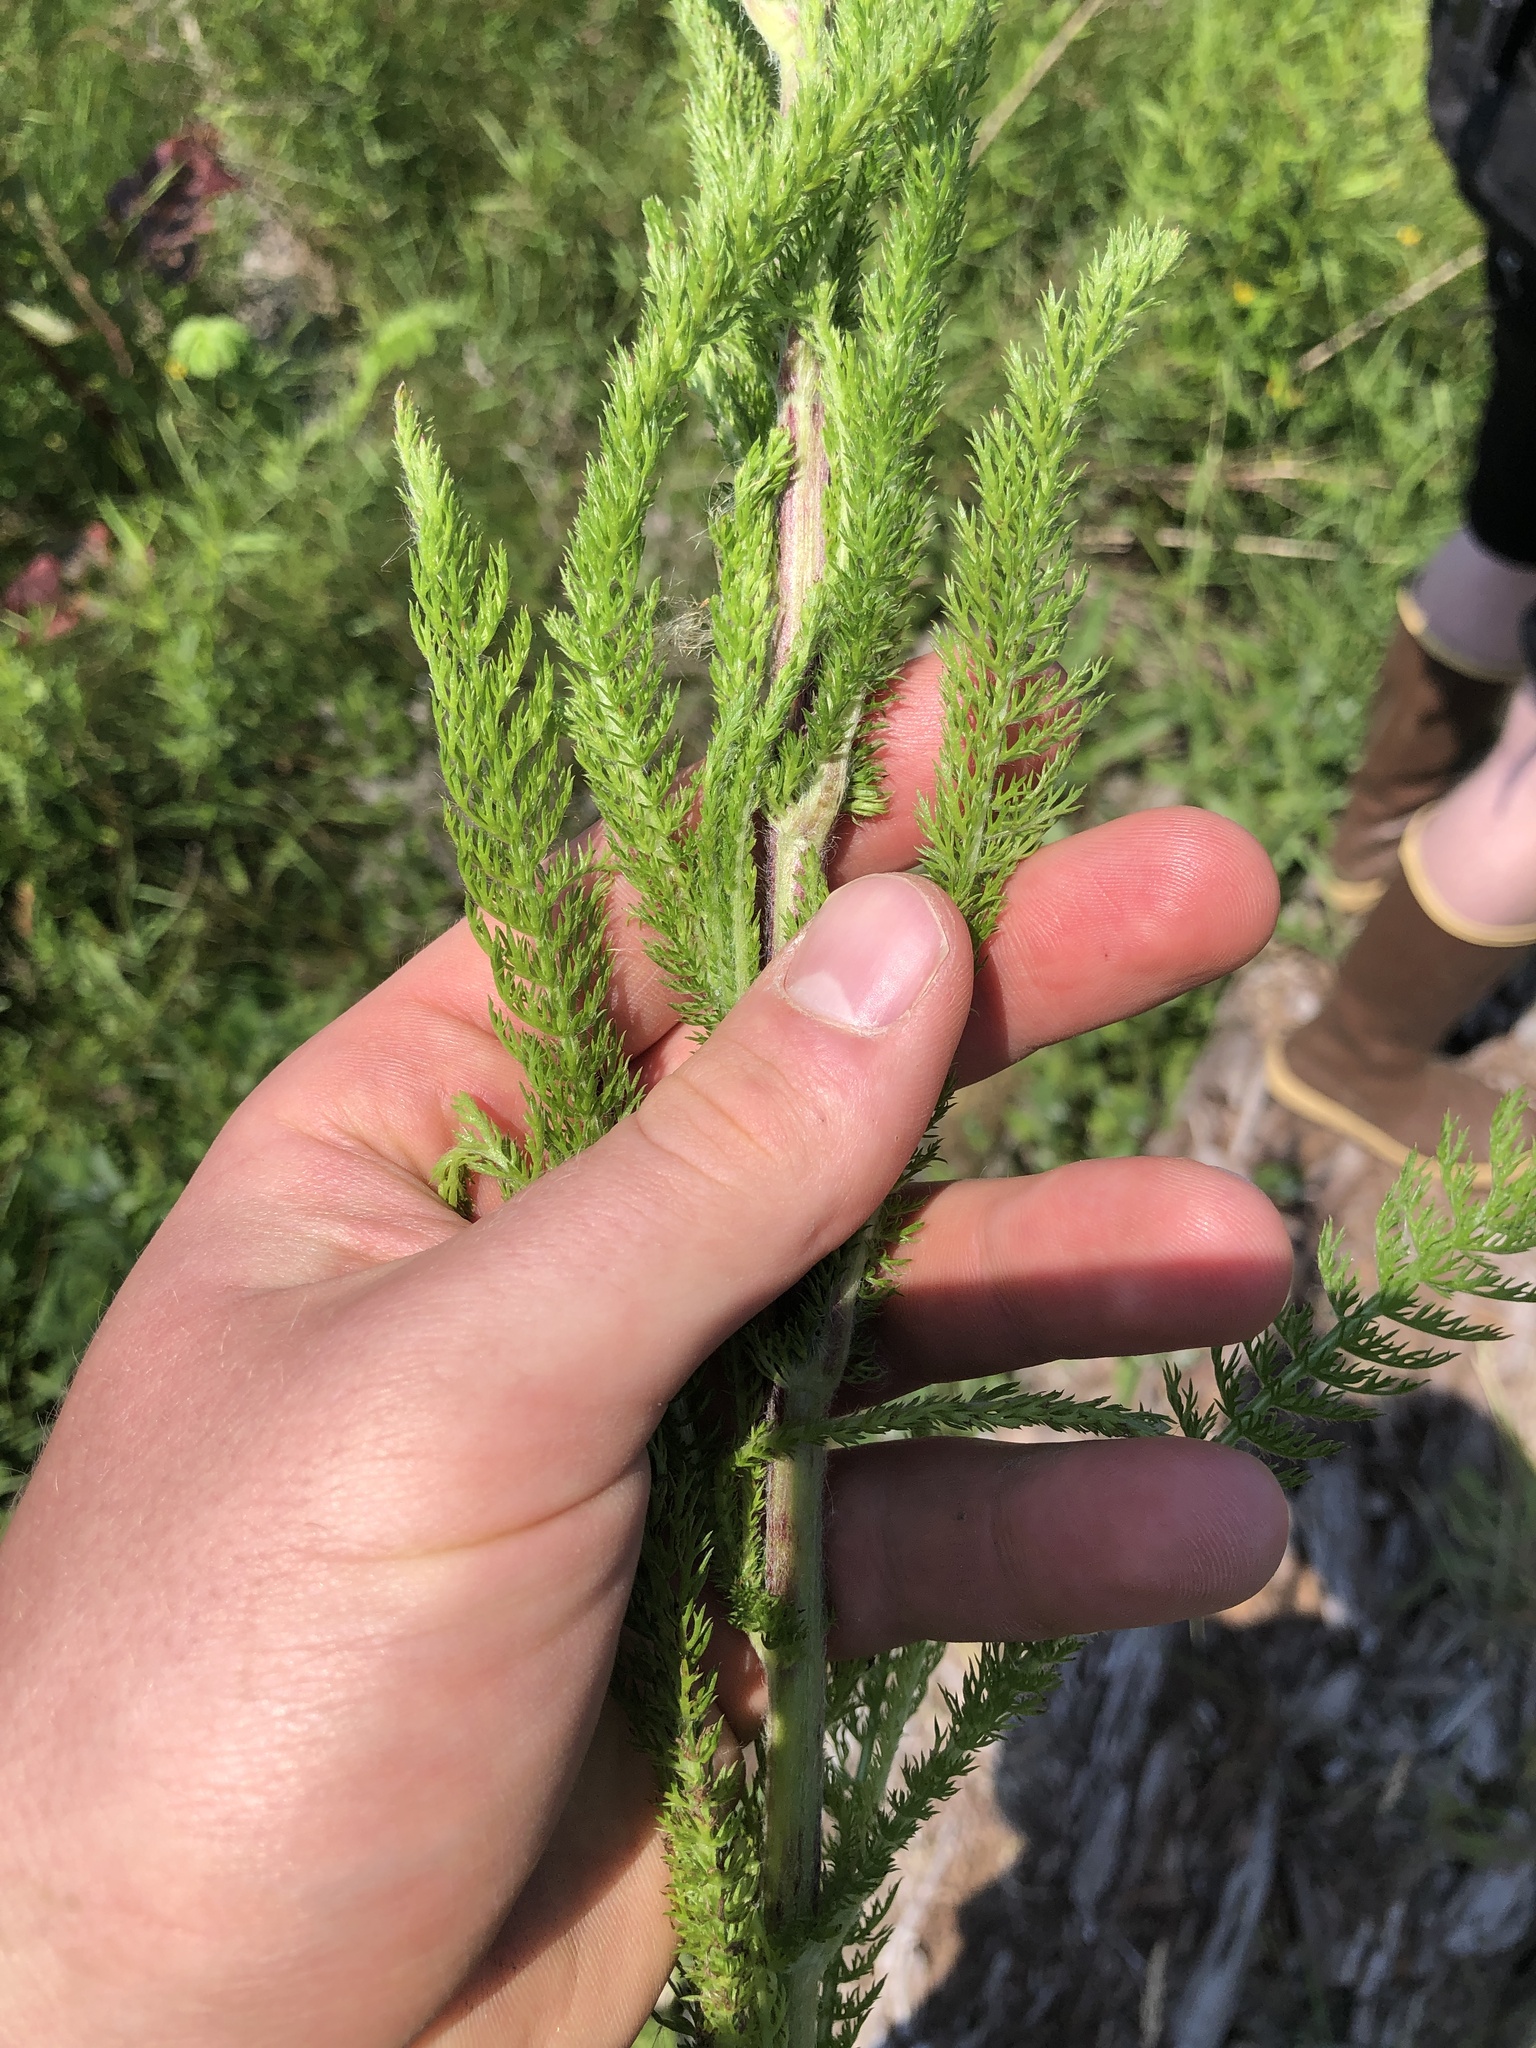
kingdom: Plantae
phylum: Tracheophyta
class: Magnoliopsida
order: Asterales
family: Asteraceae
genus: Achillea
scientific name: Achillea millefolium
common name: Yarrow
